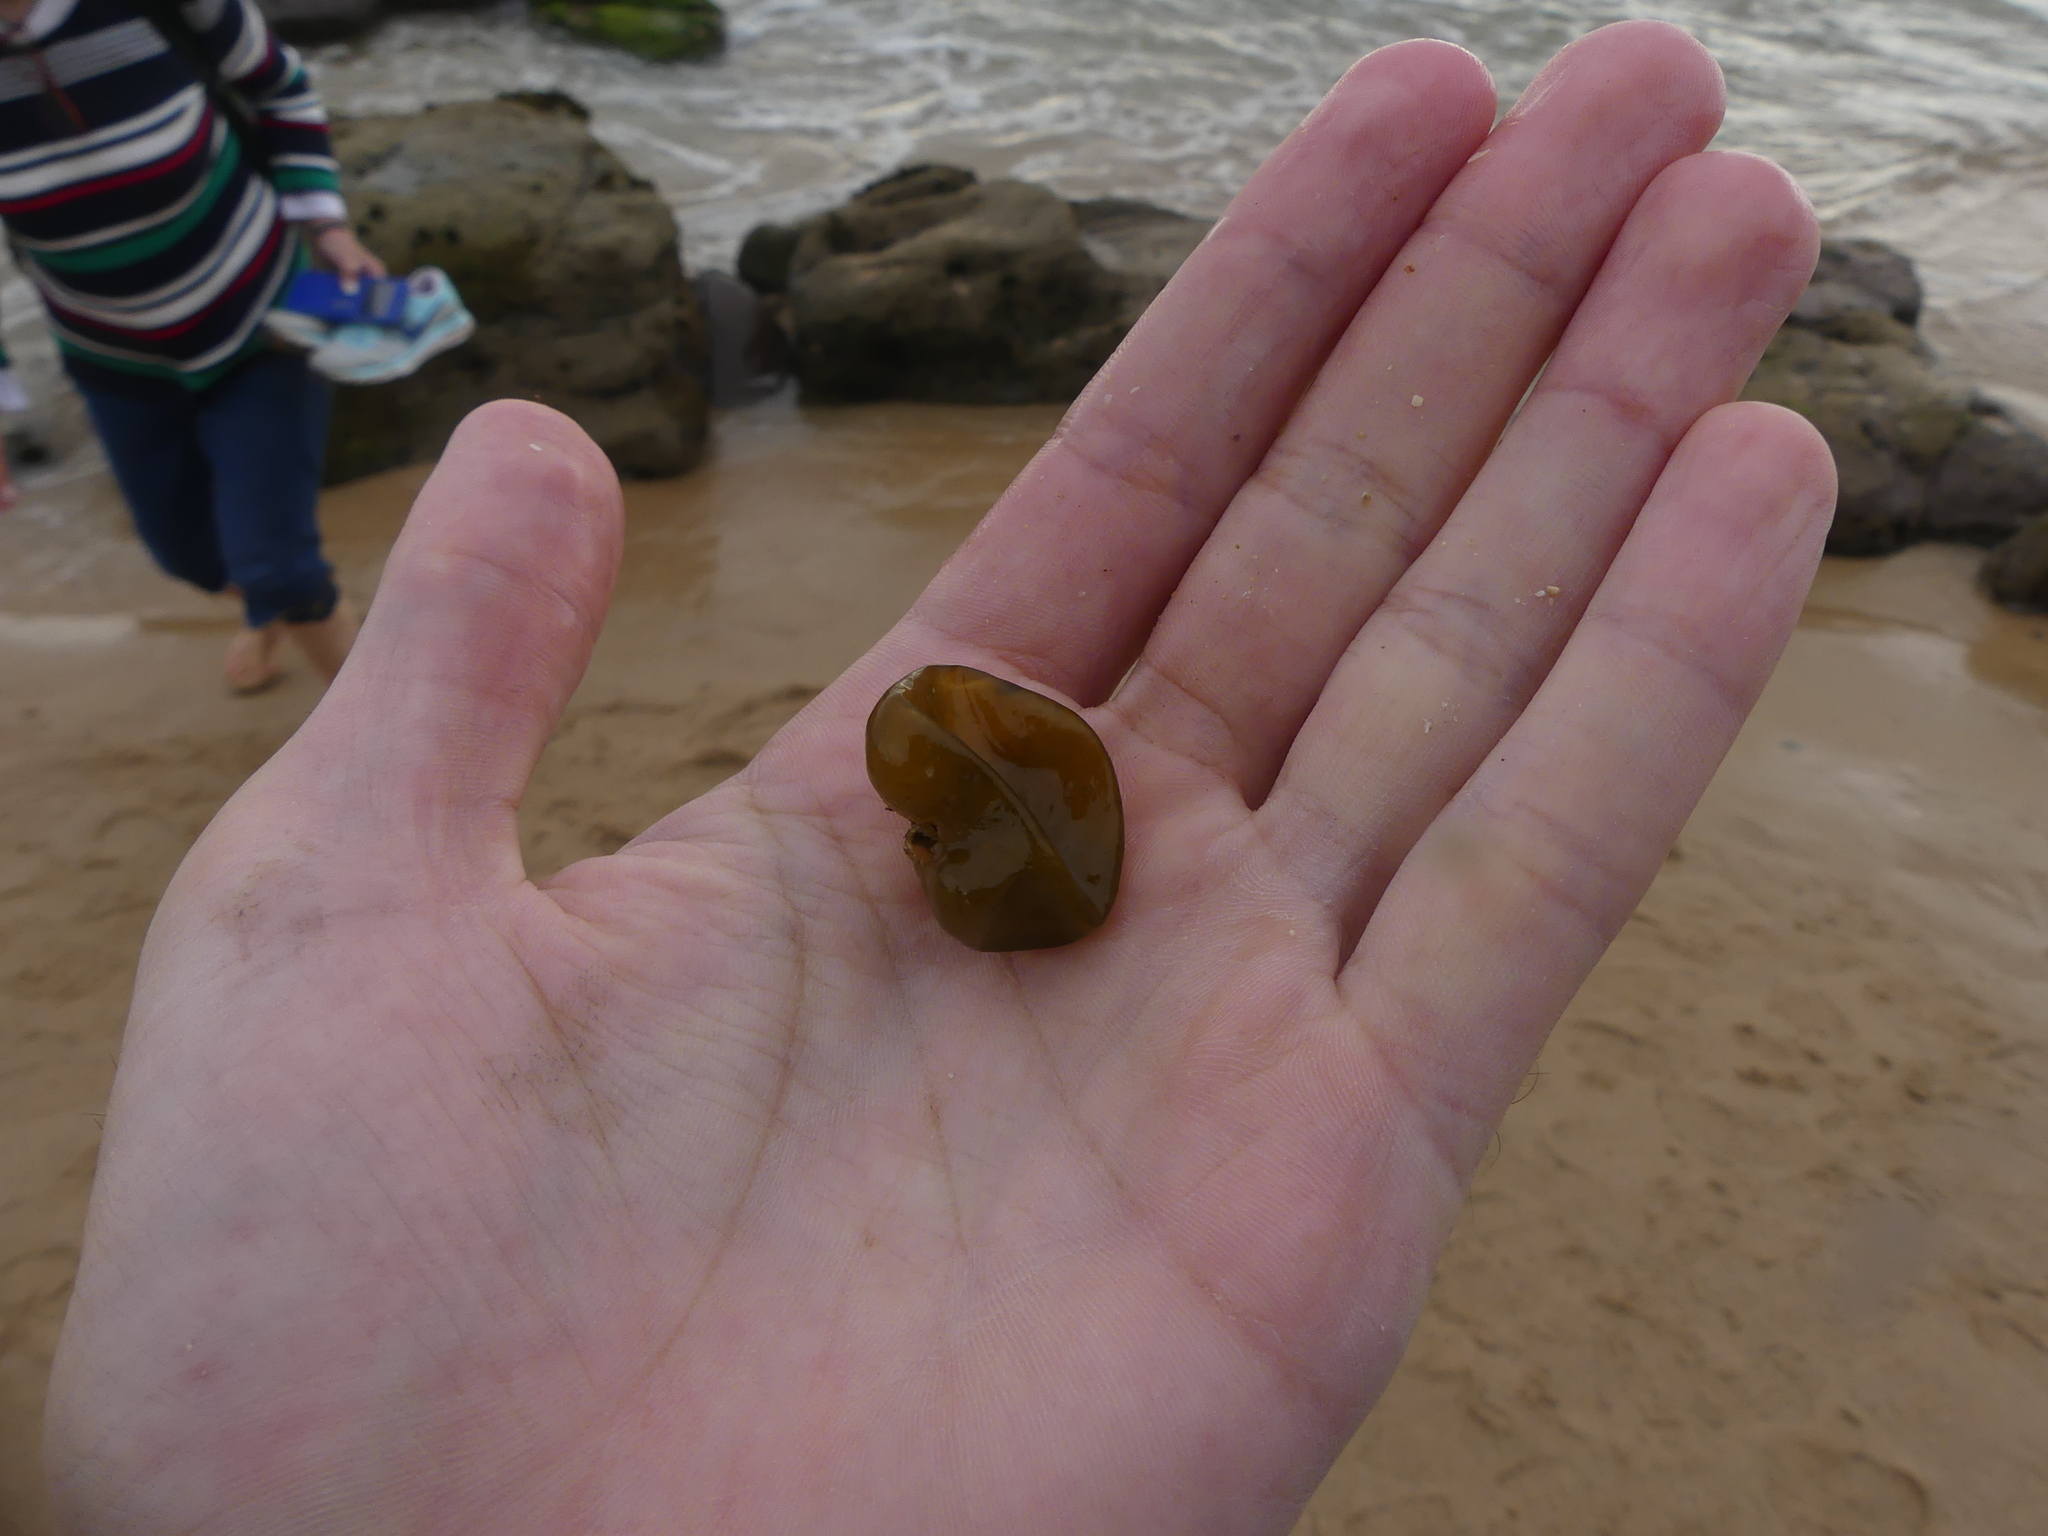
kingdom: Chromista
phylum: Ochrophyta
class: Phaeophyceae
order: Scytosiphonales
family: Scytosiphonaceae
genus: Colpomenia
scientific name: Colpomenia peregrina
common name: Oyster thief
